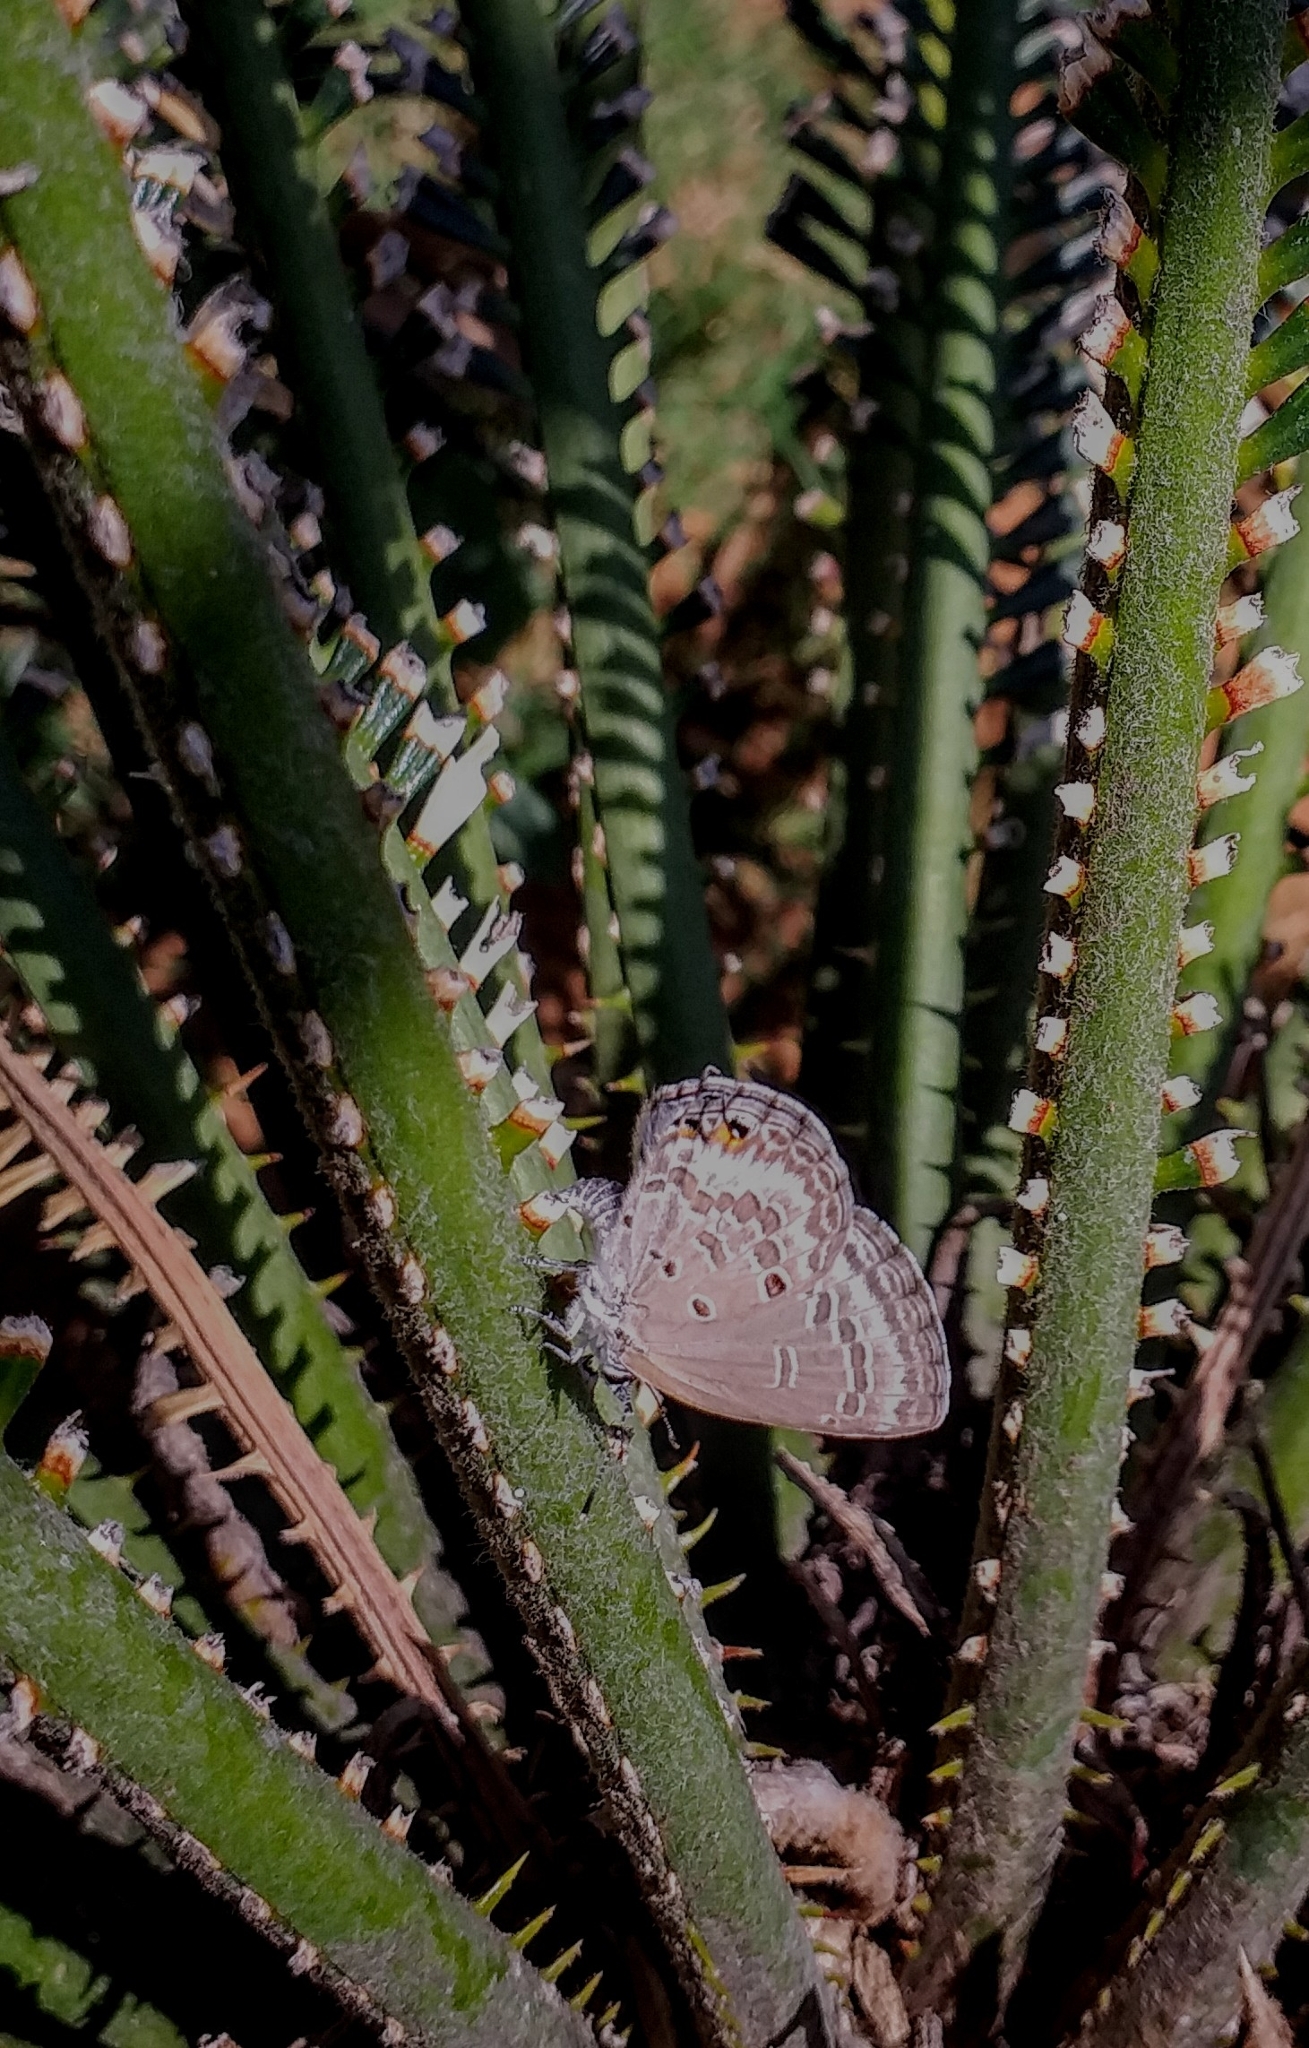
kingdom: Animalia
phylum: Arthropoda
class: Insecta
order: Lepidoptera
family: Lycaenidae
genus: Luthrodes
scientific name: Luthrodes pandava
